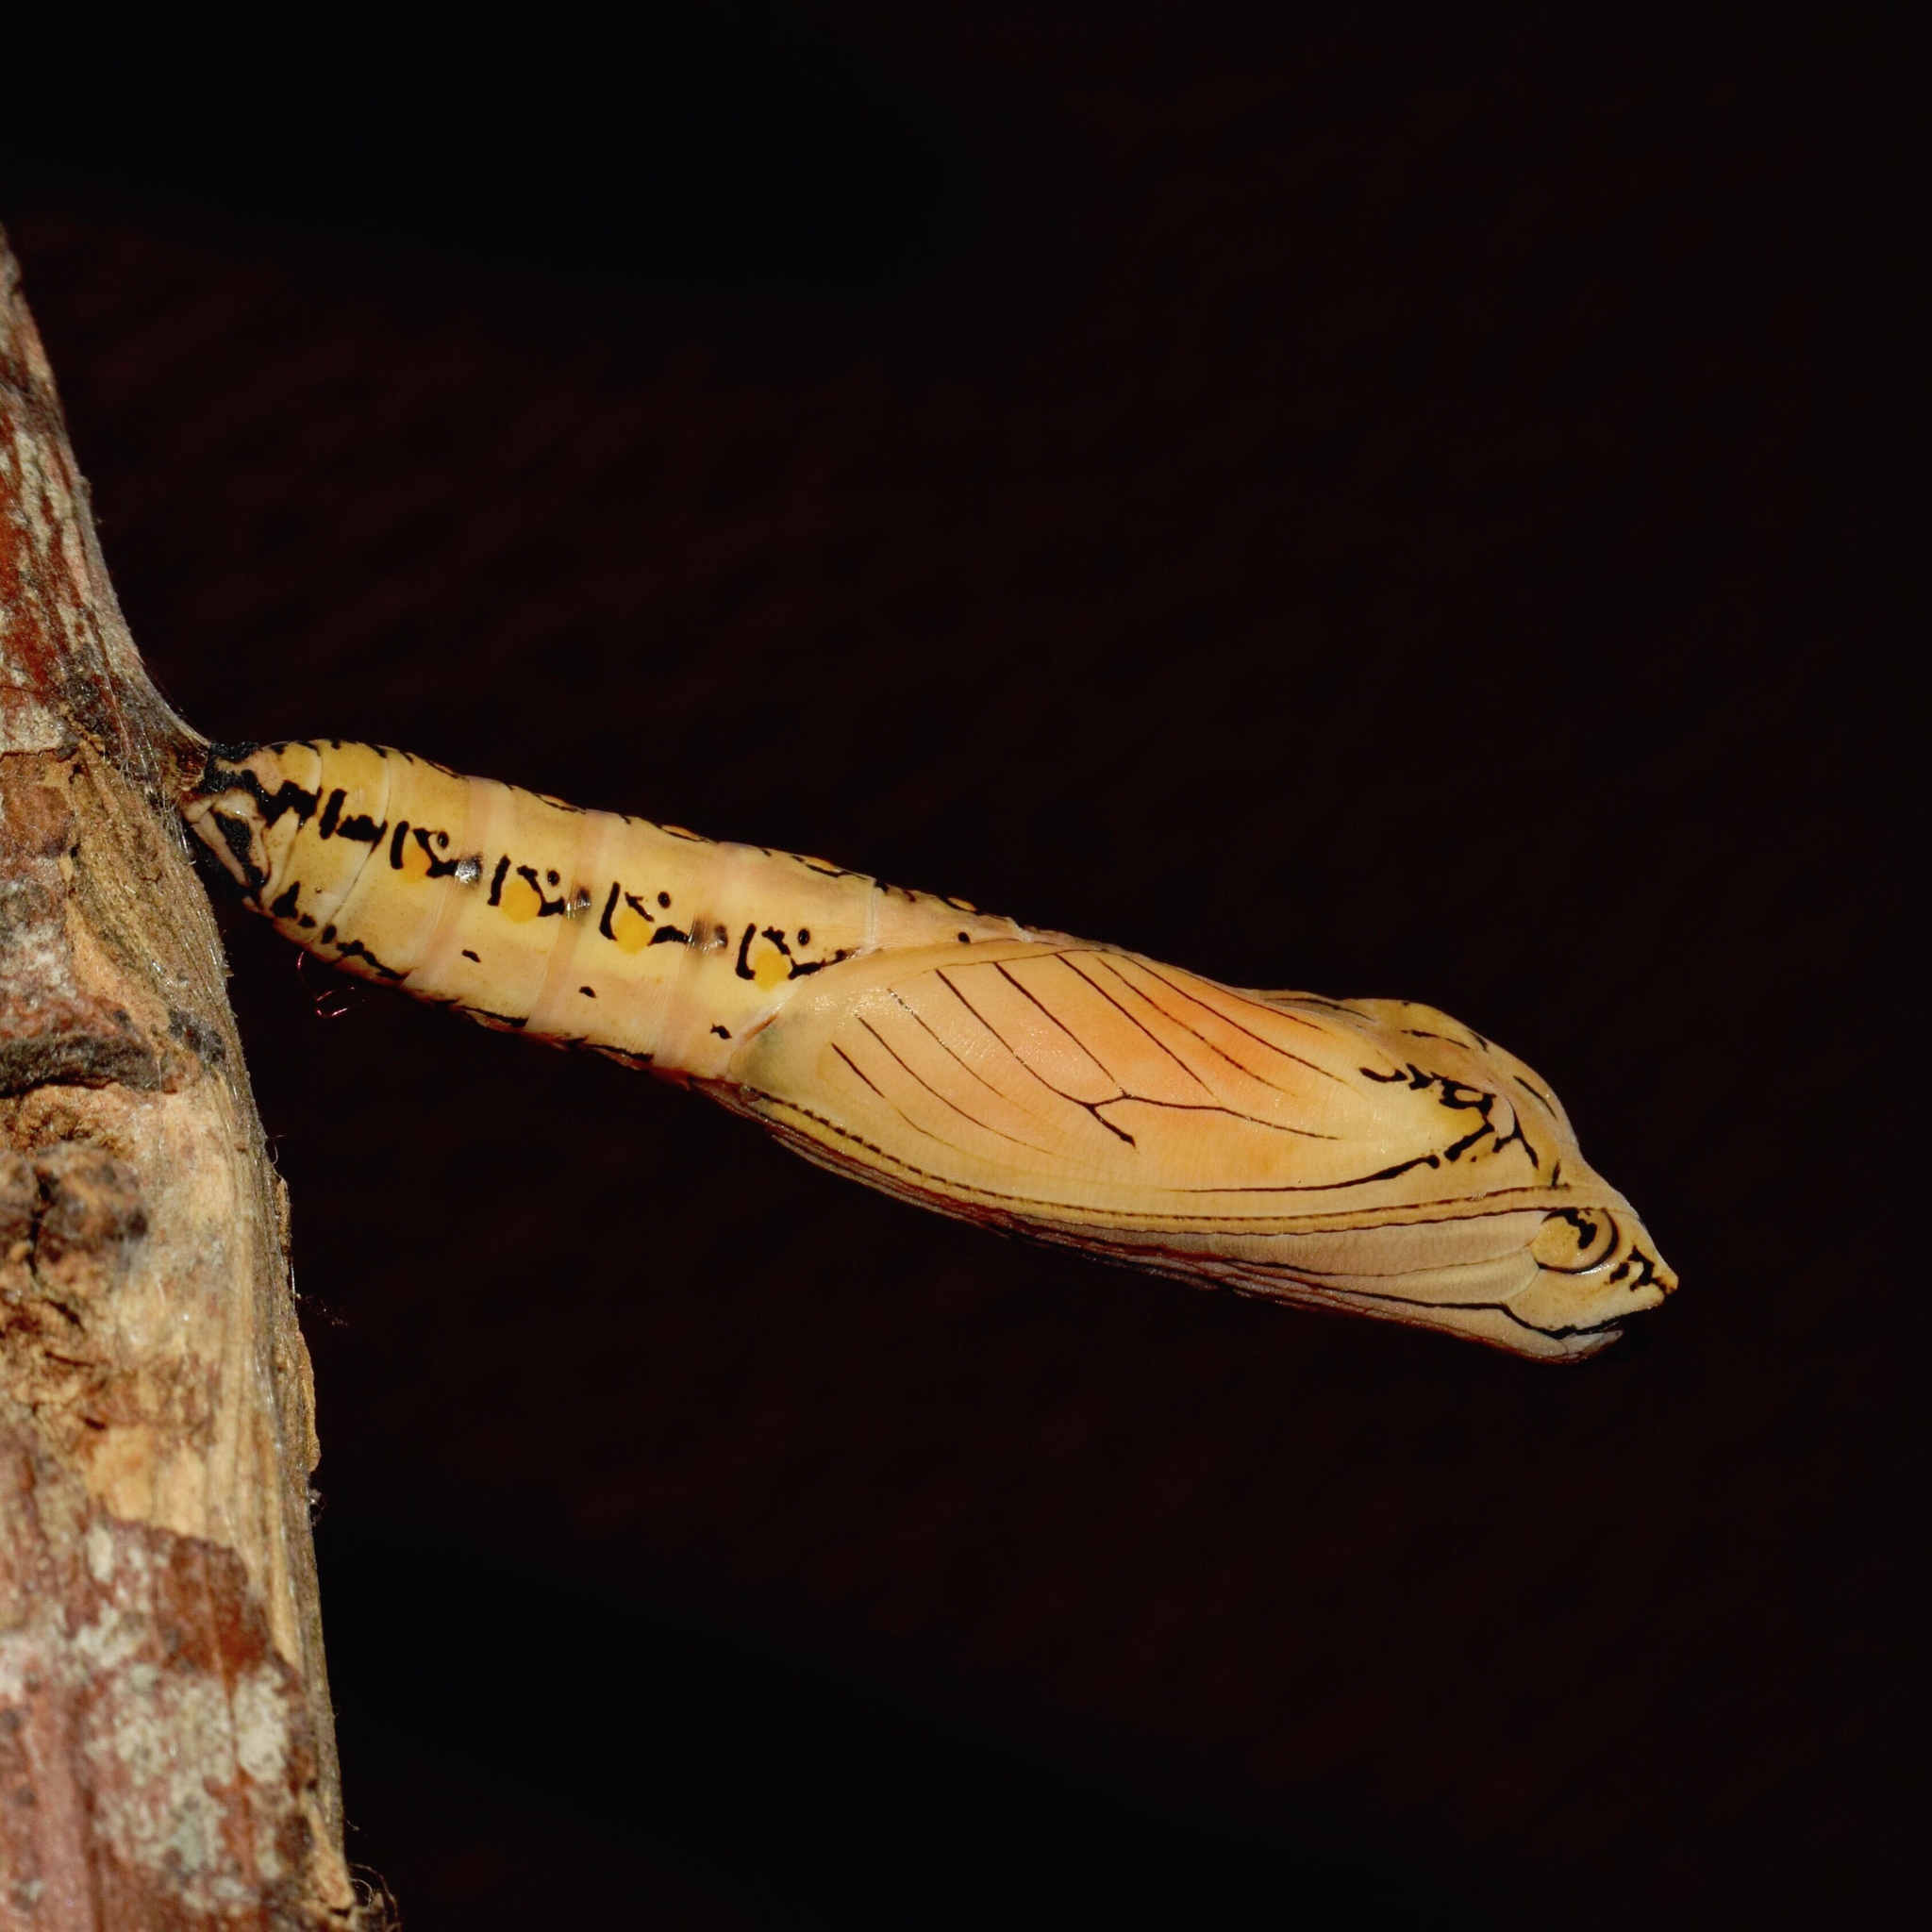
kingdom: Animalia
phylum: Arthropoda
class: Insecta
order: Lepidoptera
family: Nymphalidae
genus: Stephenia
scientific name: Stephenia
